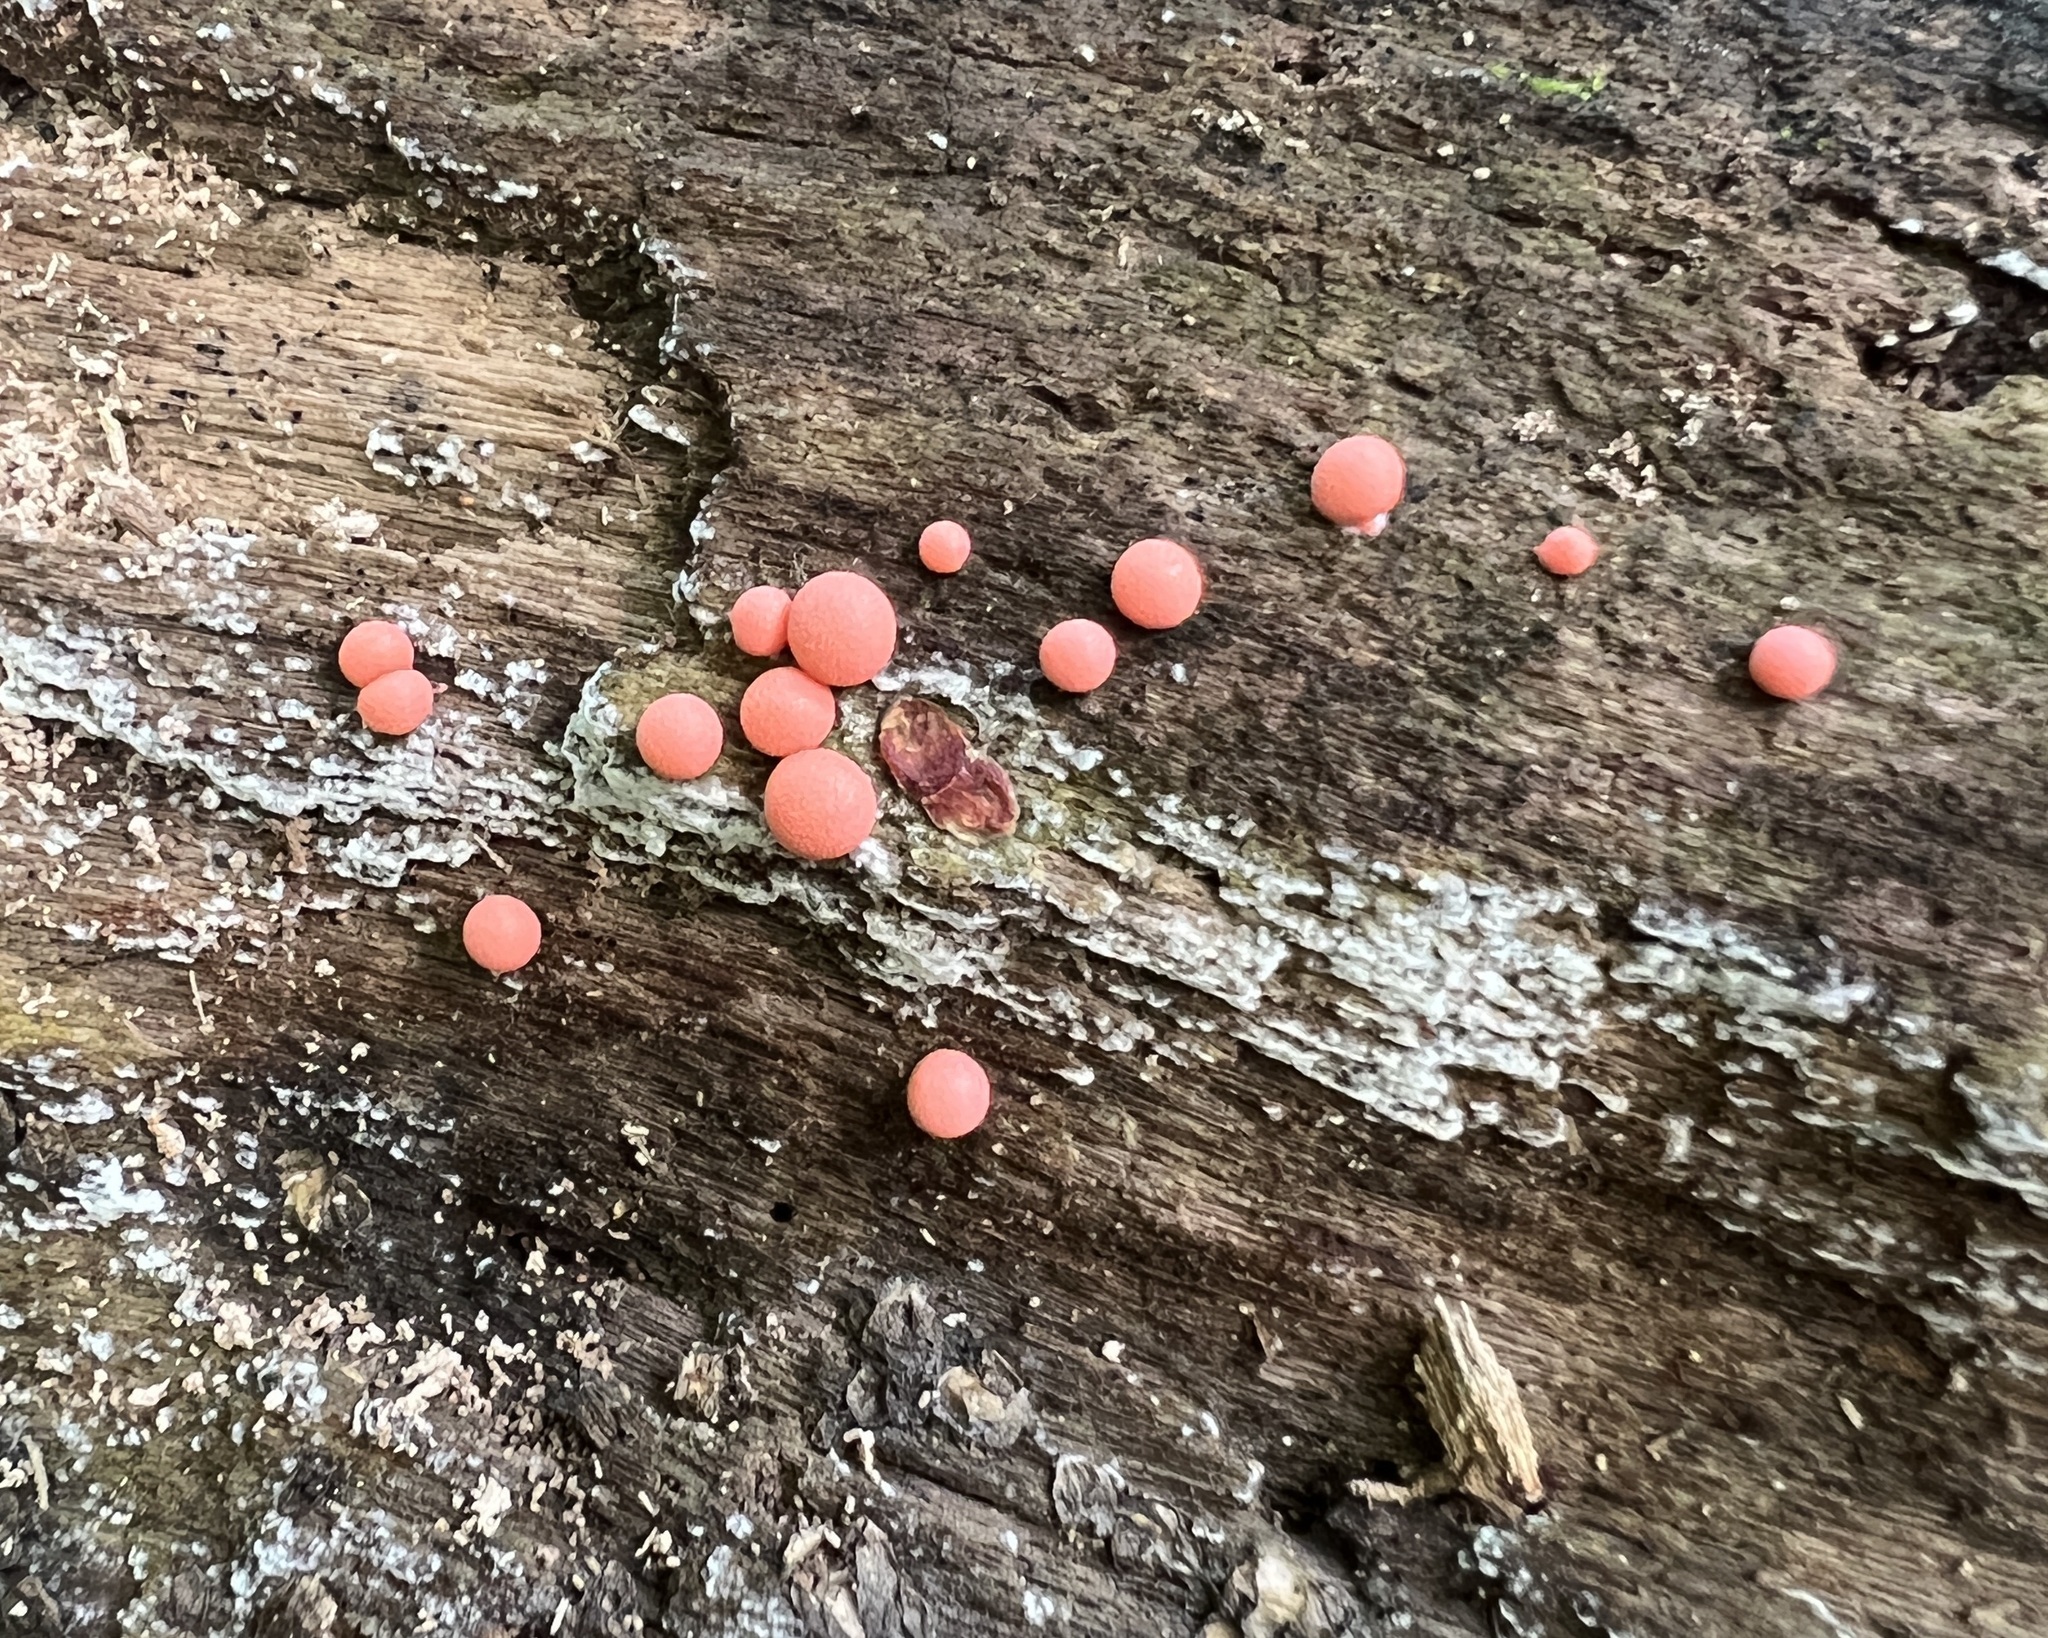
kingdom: Protozoa
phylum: Mycetozoa
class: Myxomycetes
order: Cribrariales
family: Tubiferaceae
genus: Lycogala
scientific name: Lycogala epidendrum
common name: Wolf's milk
